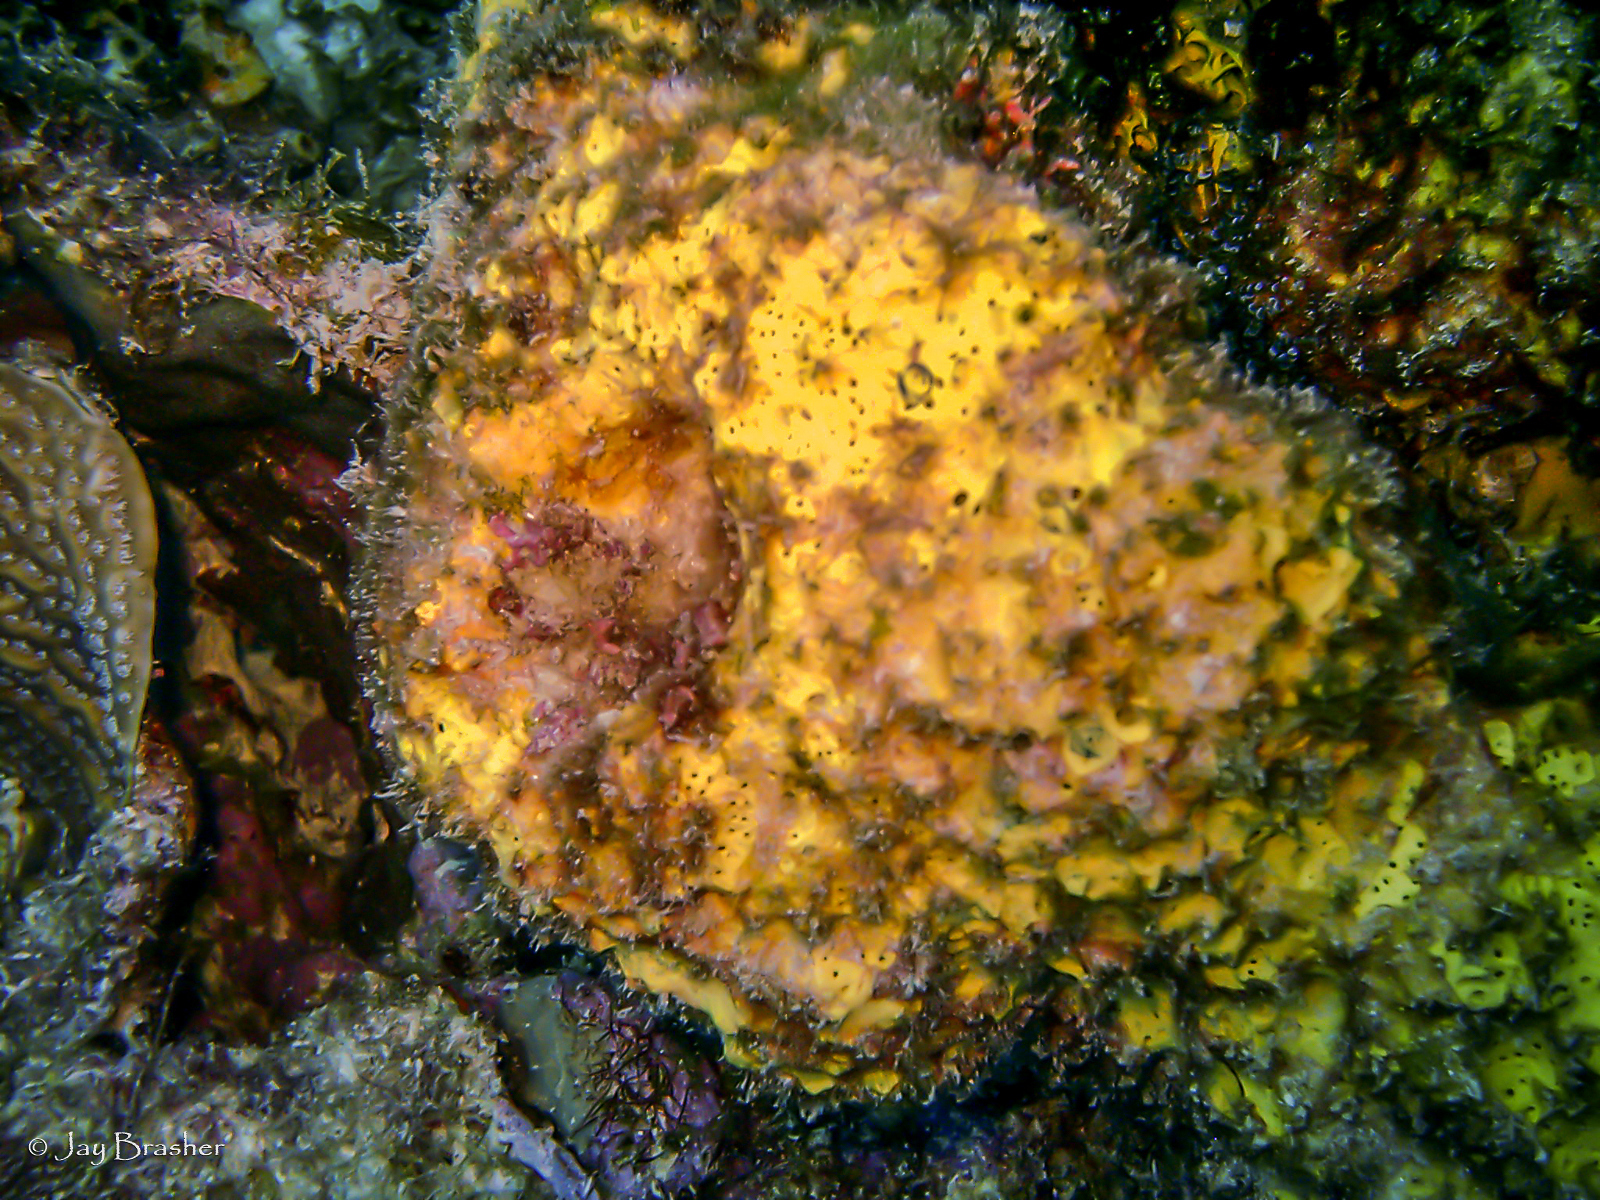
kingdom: Animalia
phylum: Porifera
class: Demospongiae
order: Verongiida
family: Aplysinidae
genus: Aiolochroia
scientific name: Aiolochroia crassa
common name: Branching tube sponge
